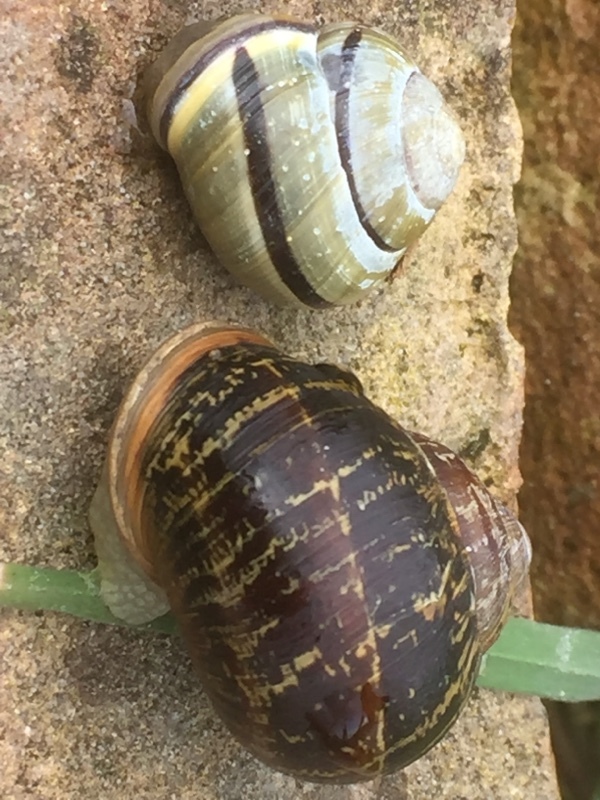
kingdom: Animalia
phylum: Mollusca
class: Gastropoda
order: Stylommatophora
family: Helicidae
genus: Cepaea
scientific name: Cepaea nemoralis
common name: Grovesnail
